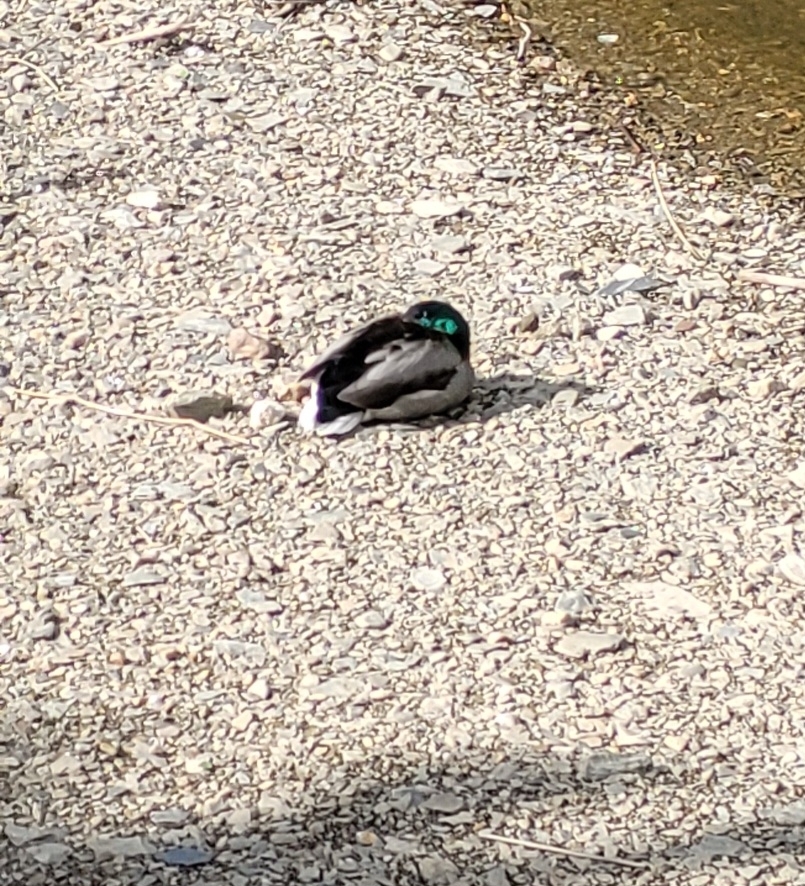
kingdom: Animalia
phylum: Chordata
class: Aves
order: Anseriformes
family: Anatidae
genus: Anas
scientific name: Anas platyrhynchos
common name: Mallard
